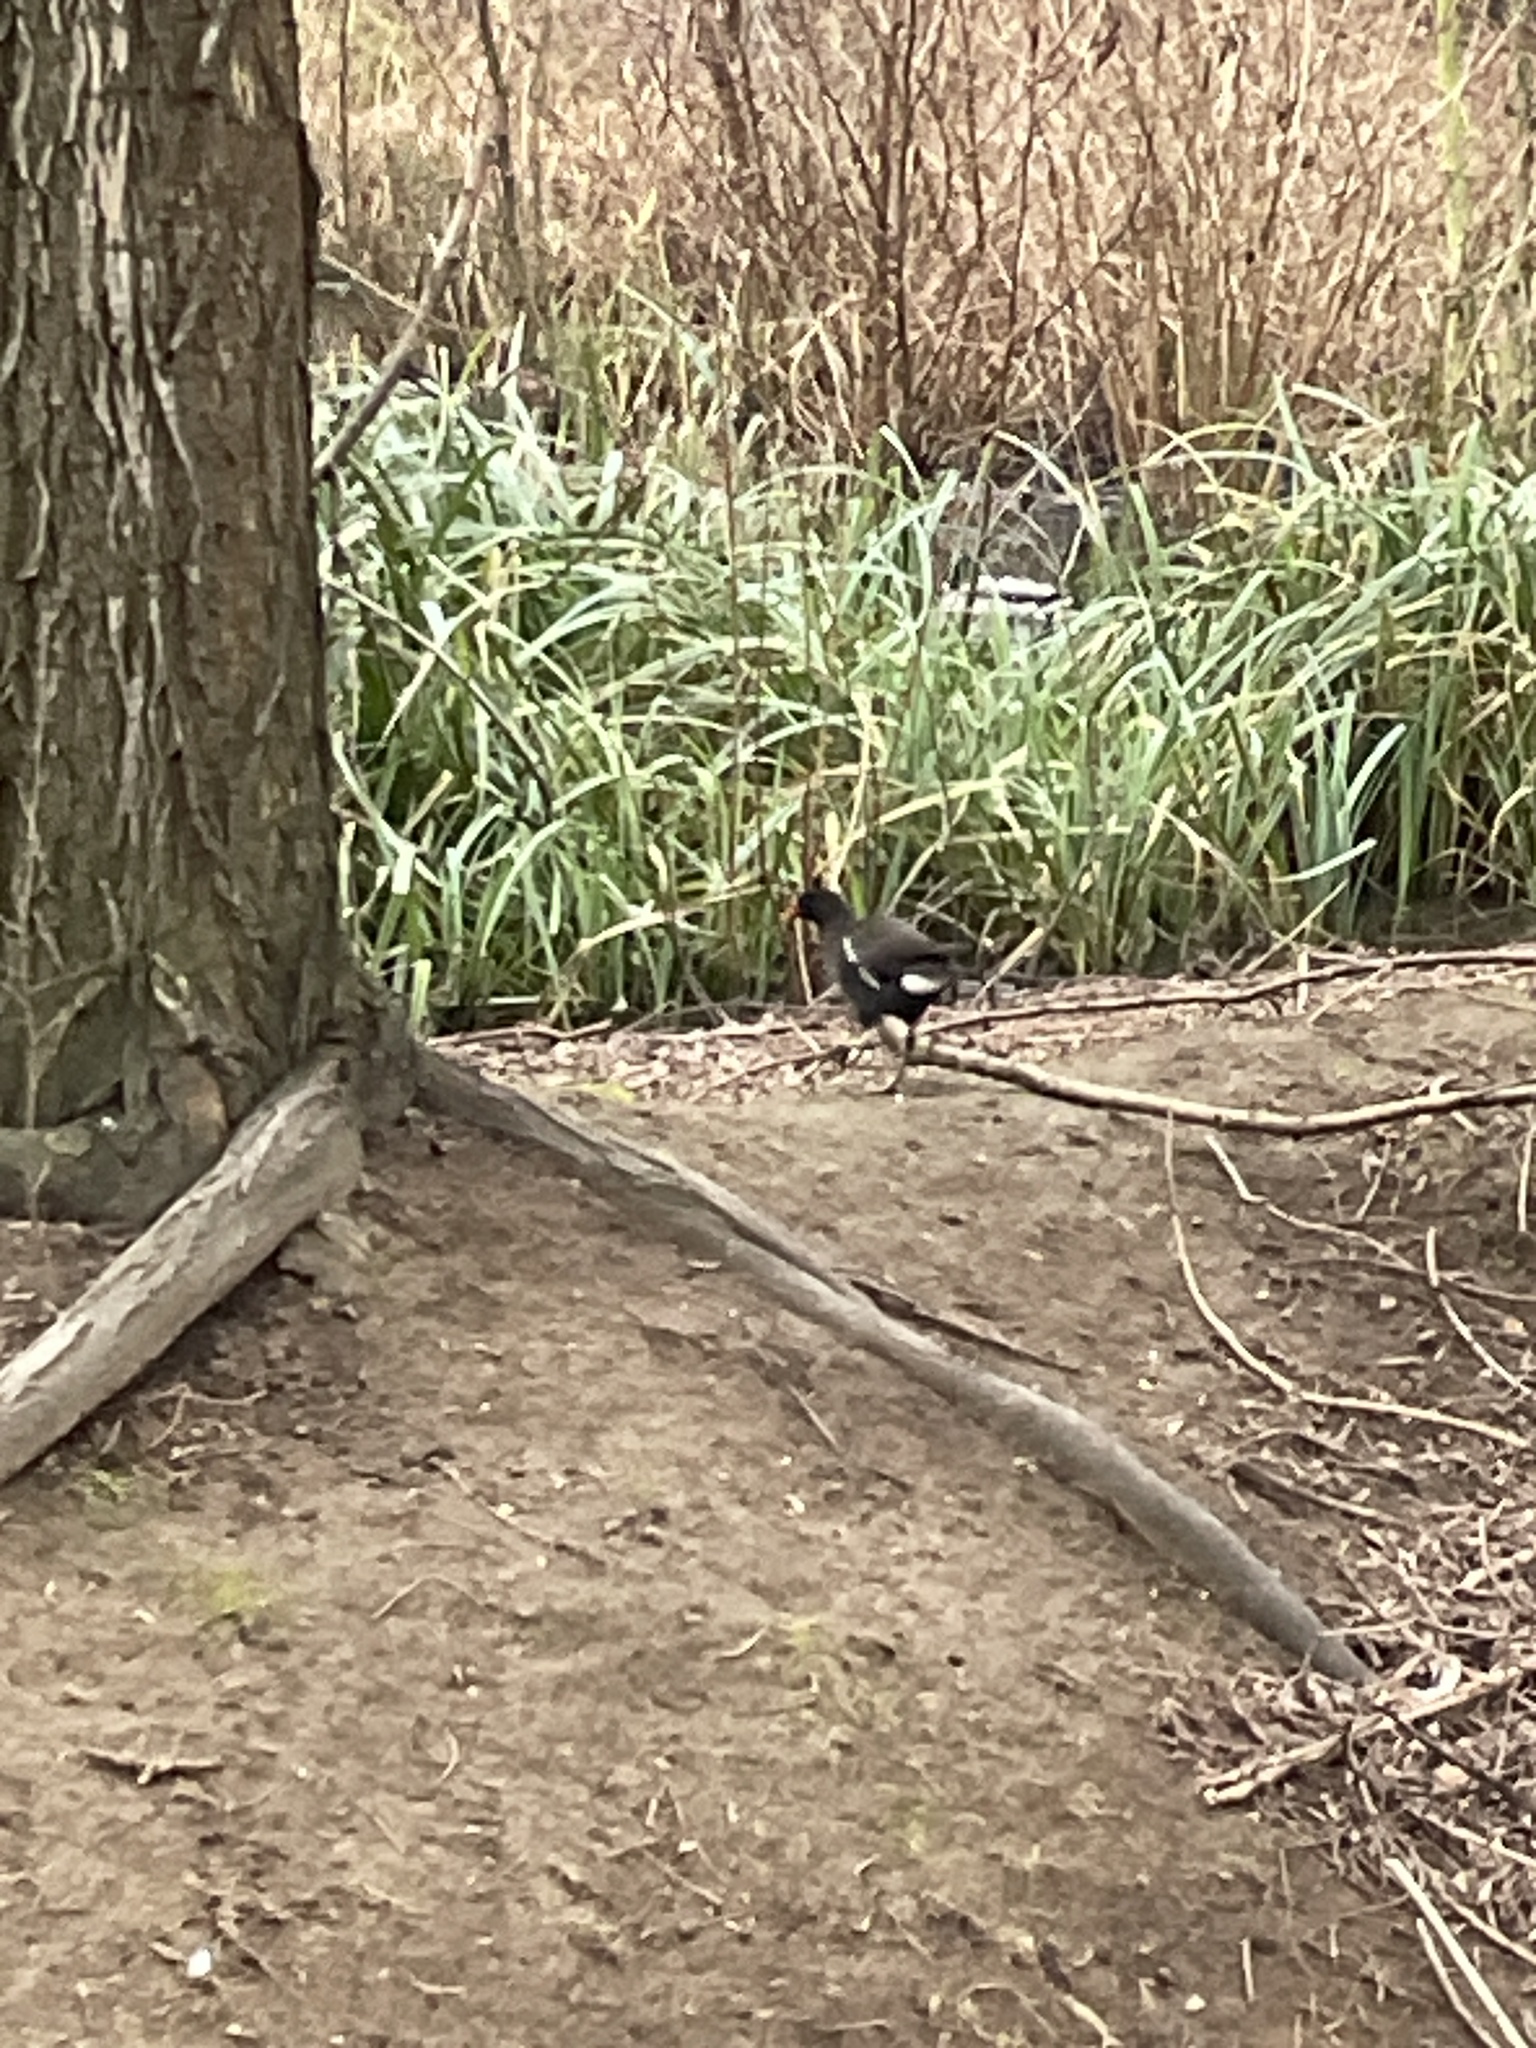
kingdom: Animalia
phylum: Chordata
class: Aves
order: Gruiformes
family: Rallidae
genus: Gallinula
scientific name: Gallinula chloropus
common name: Common moorhen
